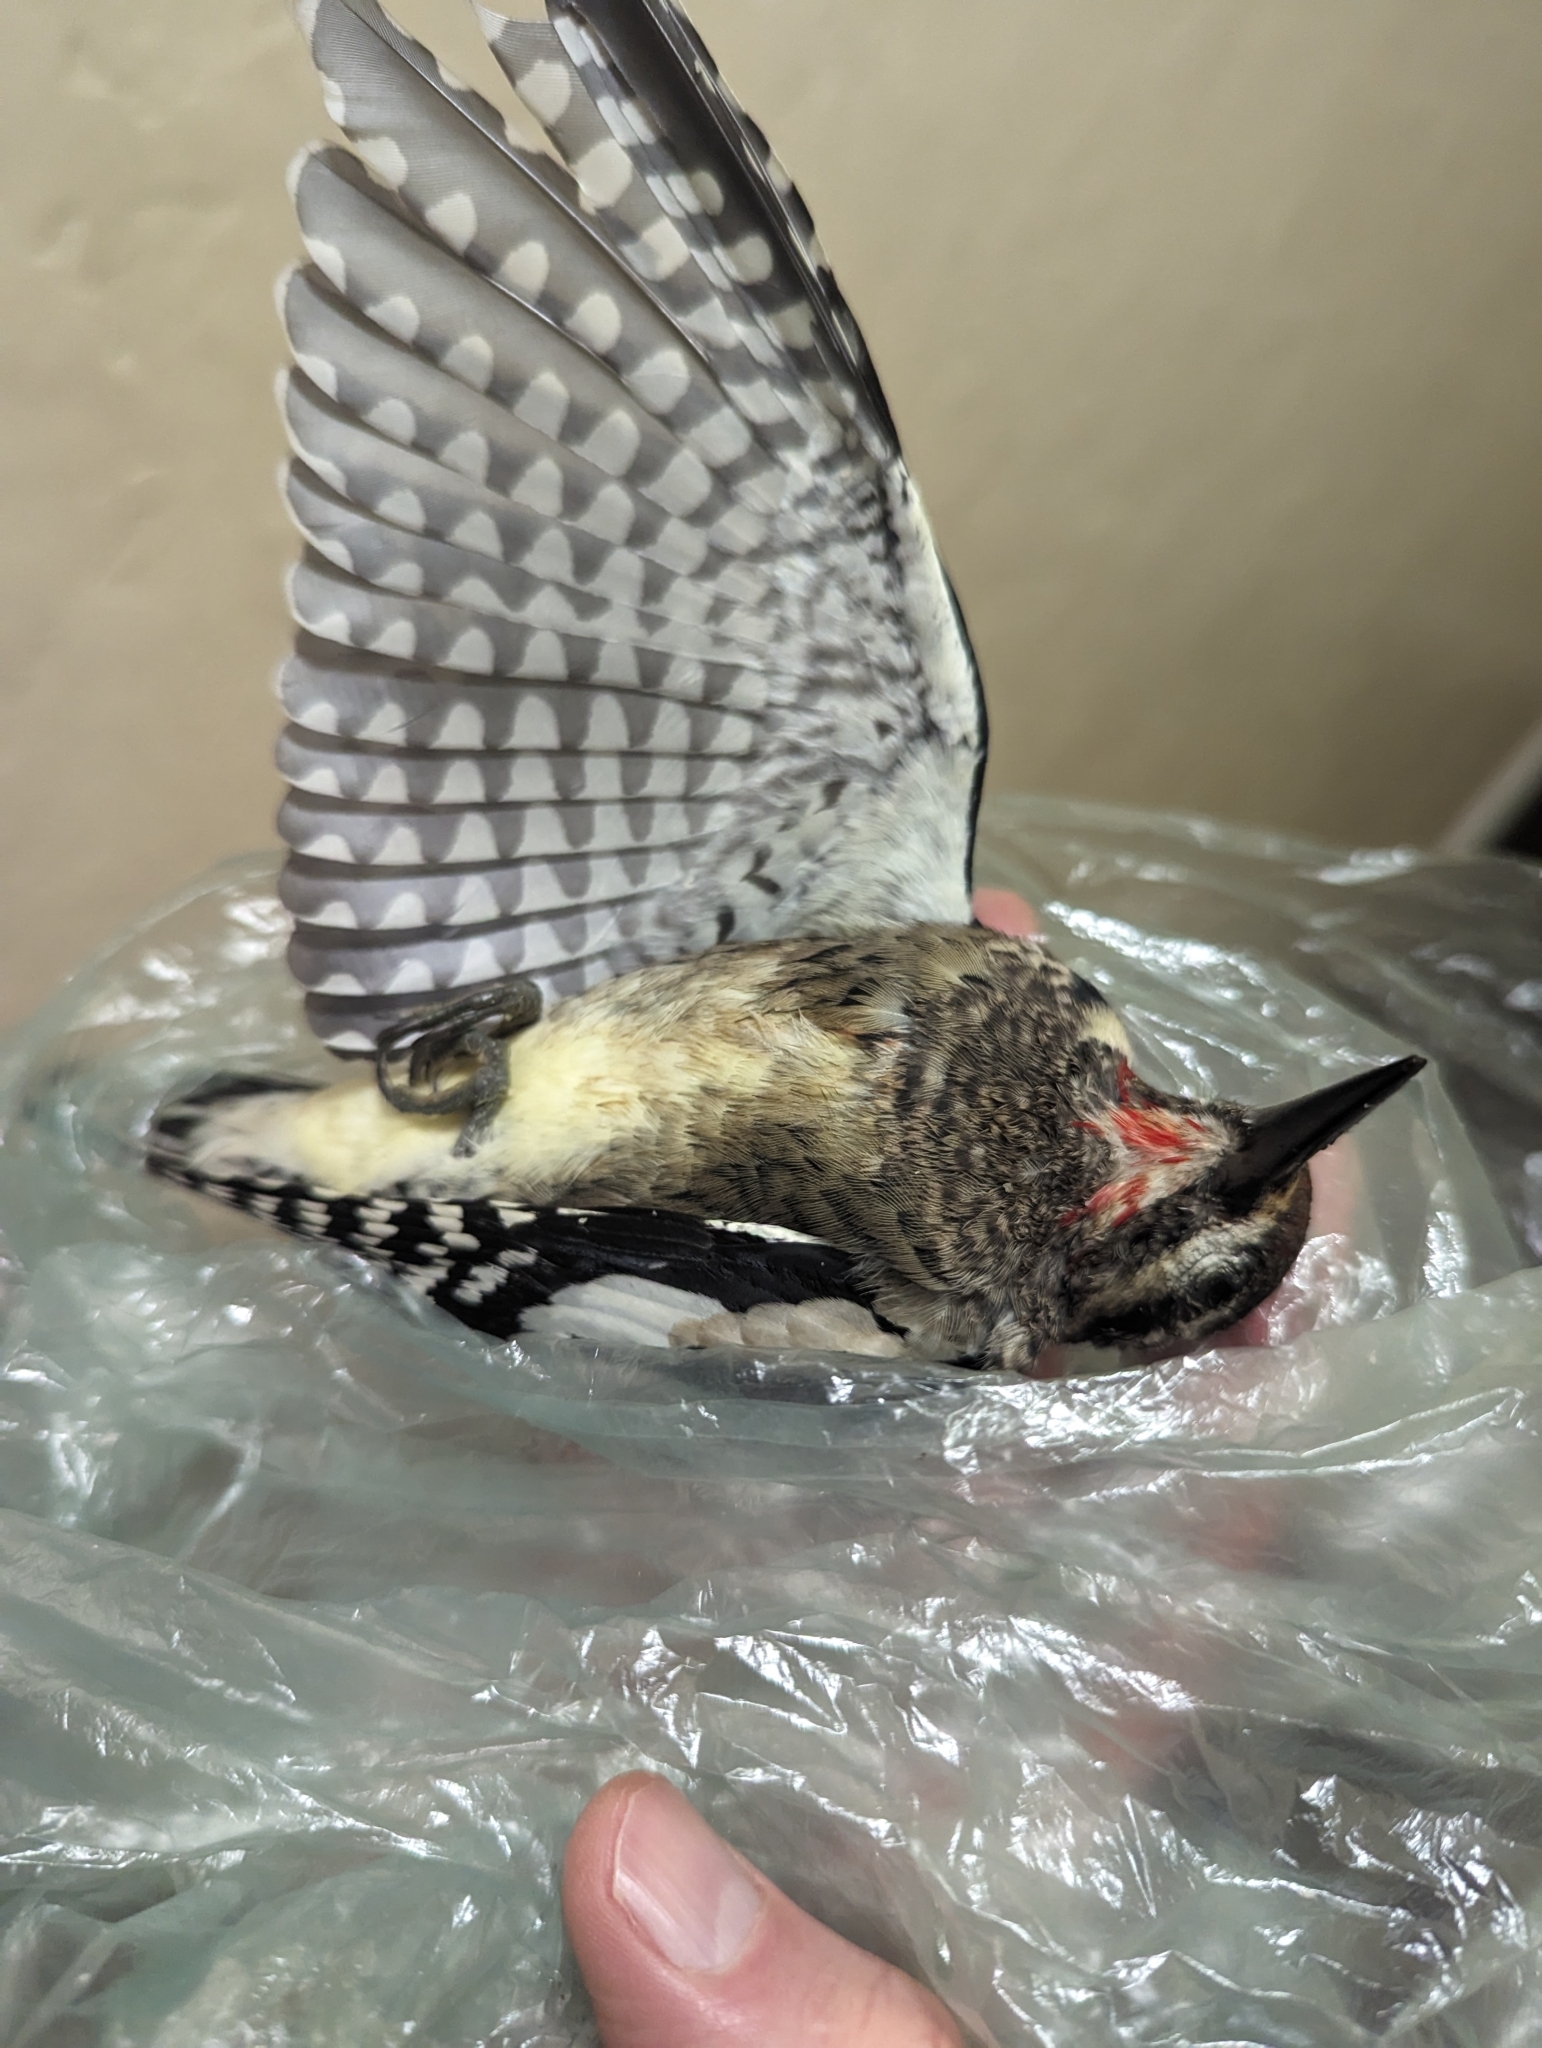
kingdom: Animalia
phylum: Chordata
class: Aves
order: Piciformes
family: Picidae
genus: Sphyrapicus
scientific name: Sphyrapicus varius
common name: Yellow-bellied sapsucker
